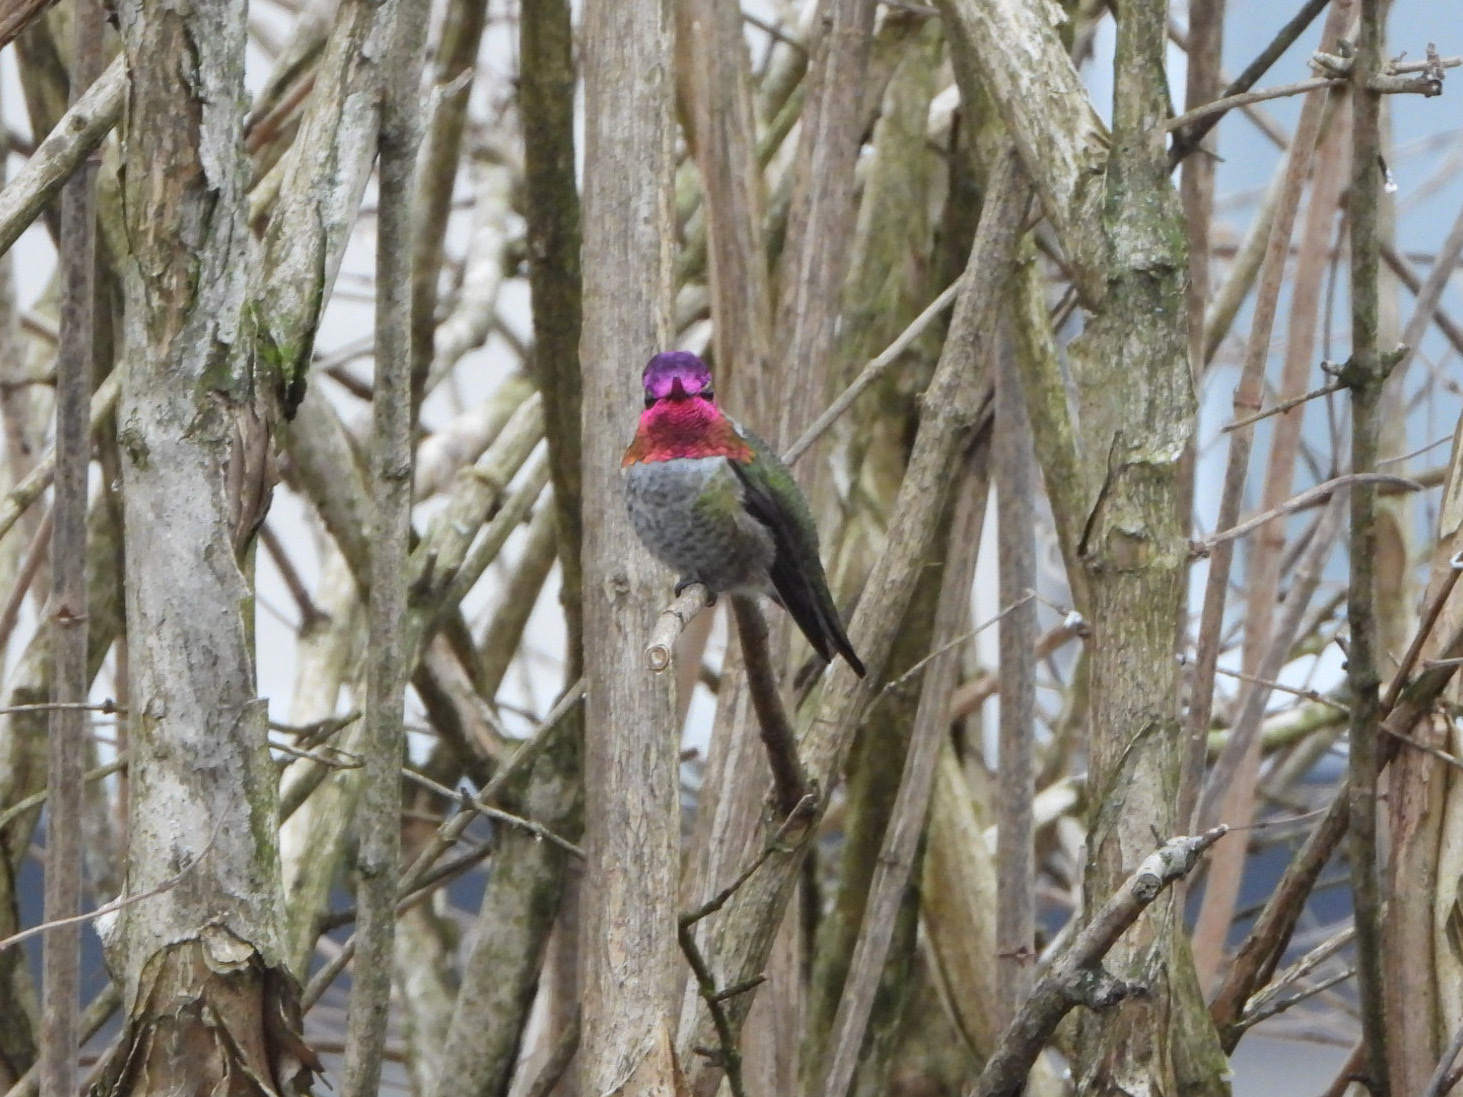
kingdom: Animalia
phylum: Chordata
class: Aves
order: Apodiformes
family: Trochilidae
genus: Calypte
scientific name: Calypte anna
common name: Anna's hummingbird
